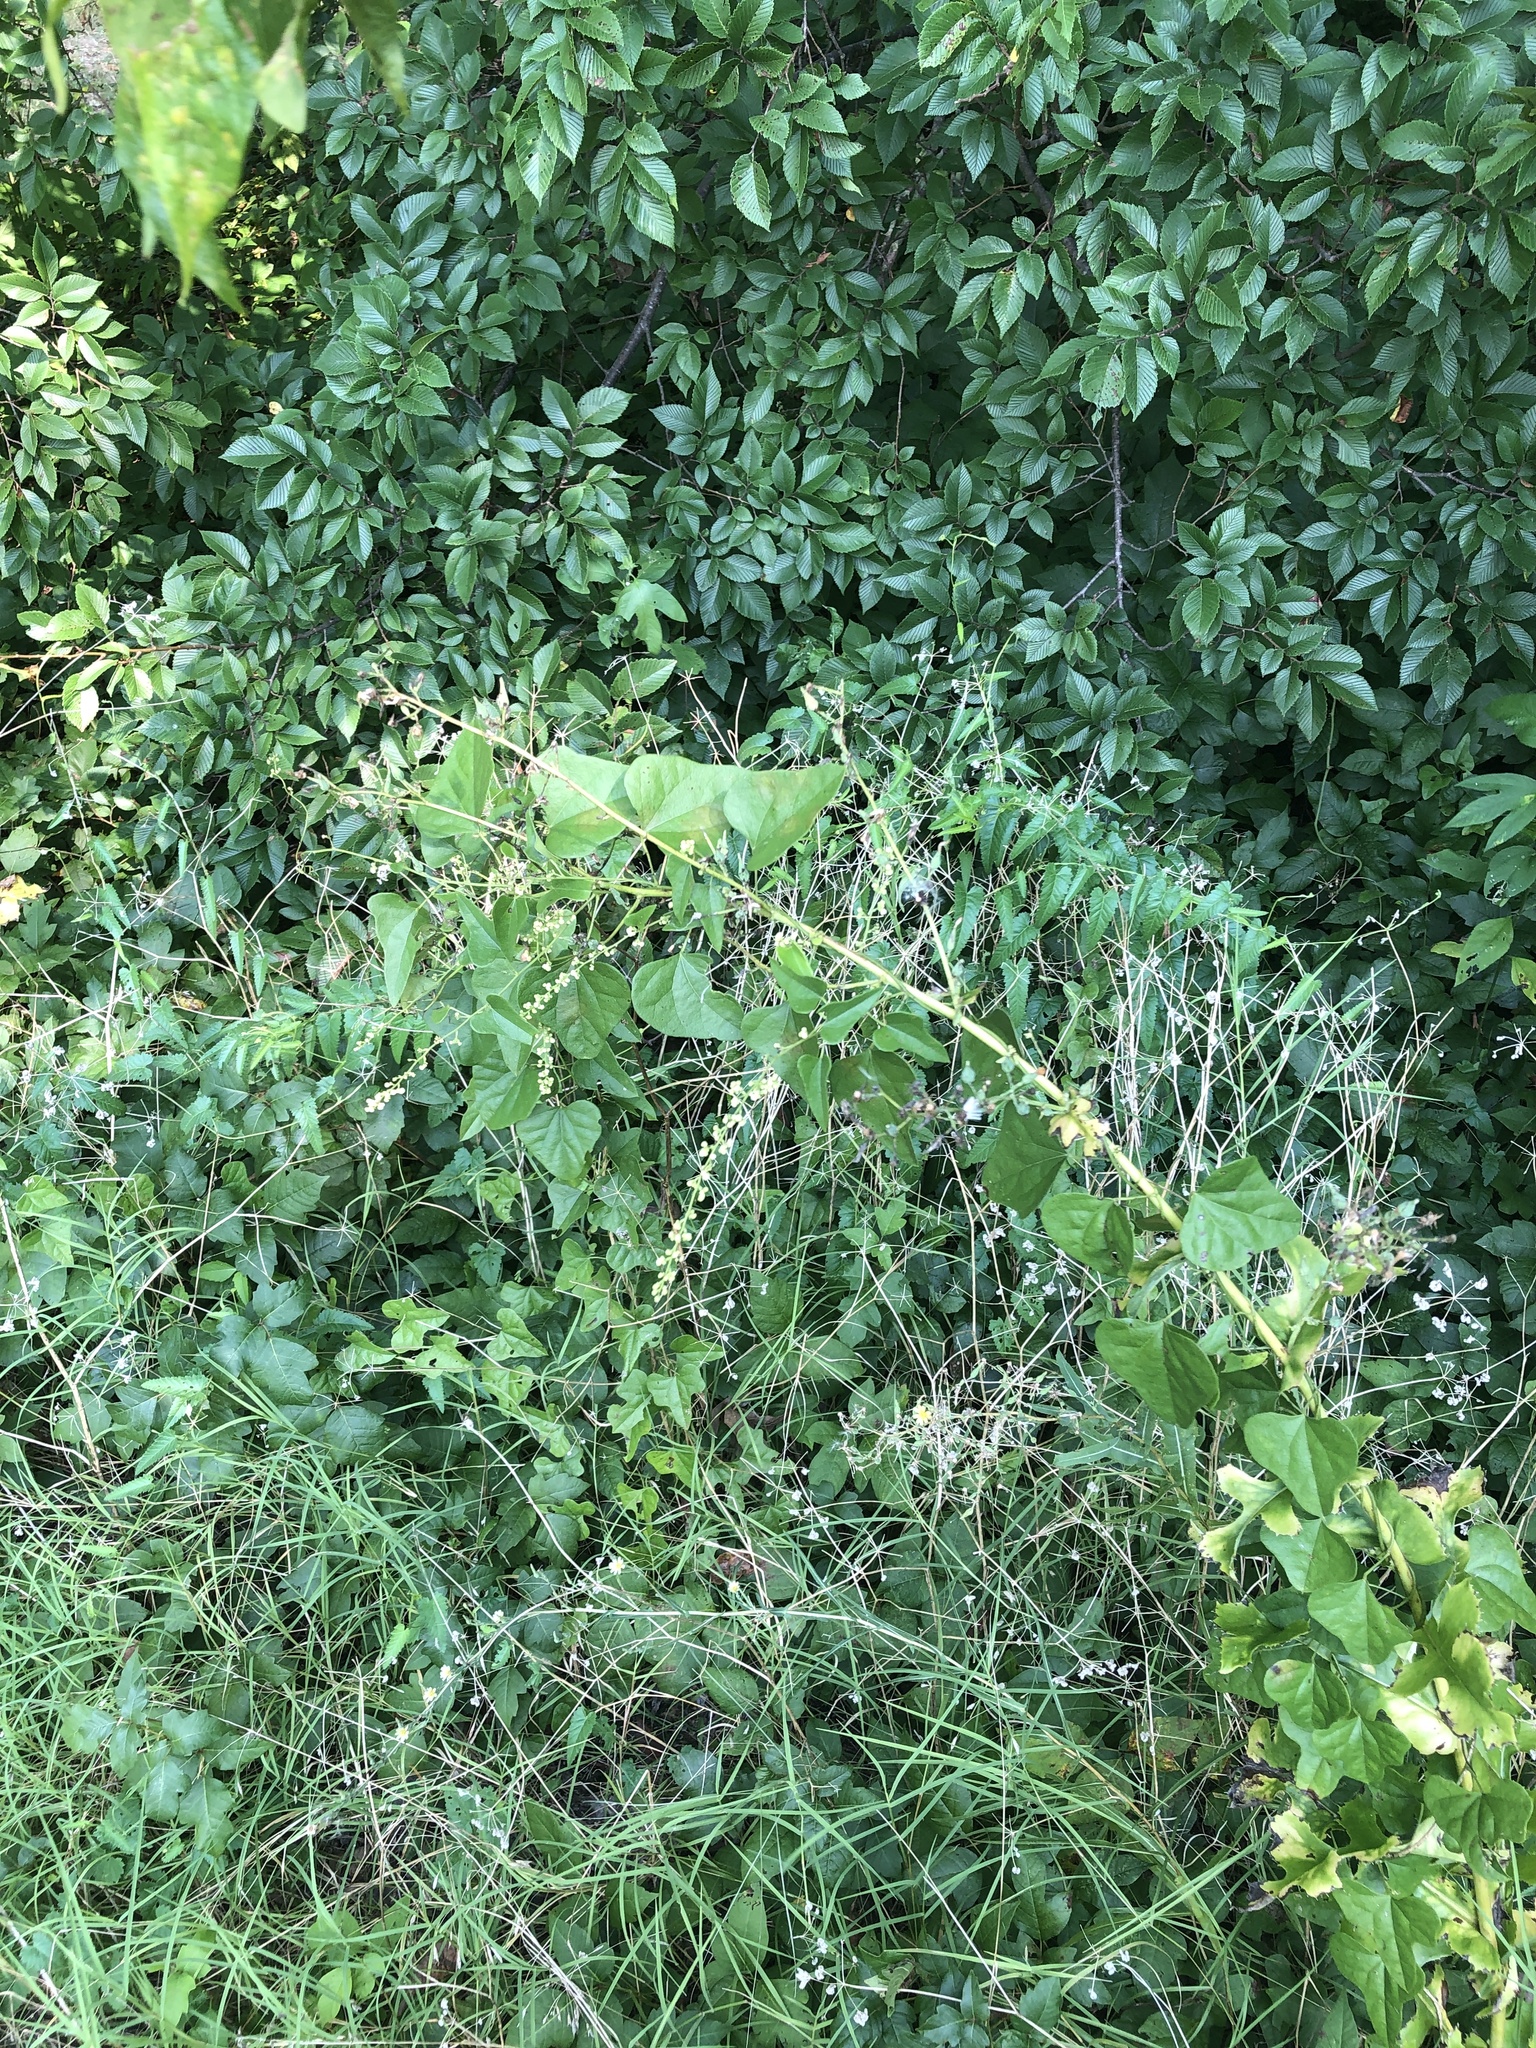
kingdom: Plantae
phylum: Tracheophyta
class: Magnoliopsida
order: Ranunculales
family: Menispermaceae
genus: Cocculus
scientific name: Cocculus carolinus
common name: Carolina moonseed
